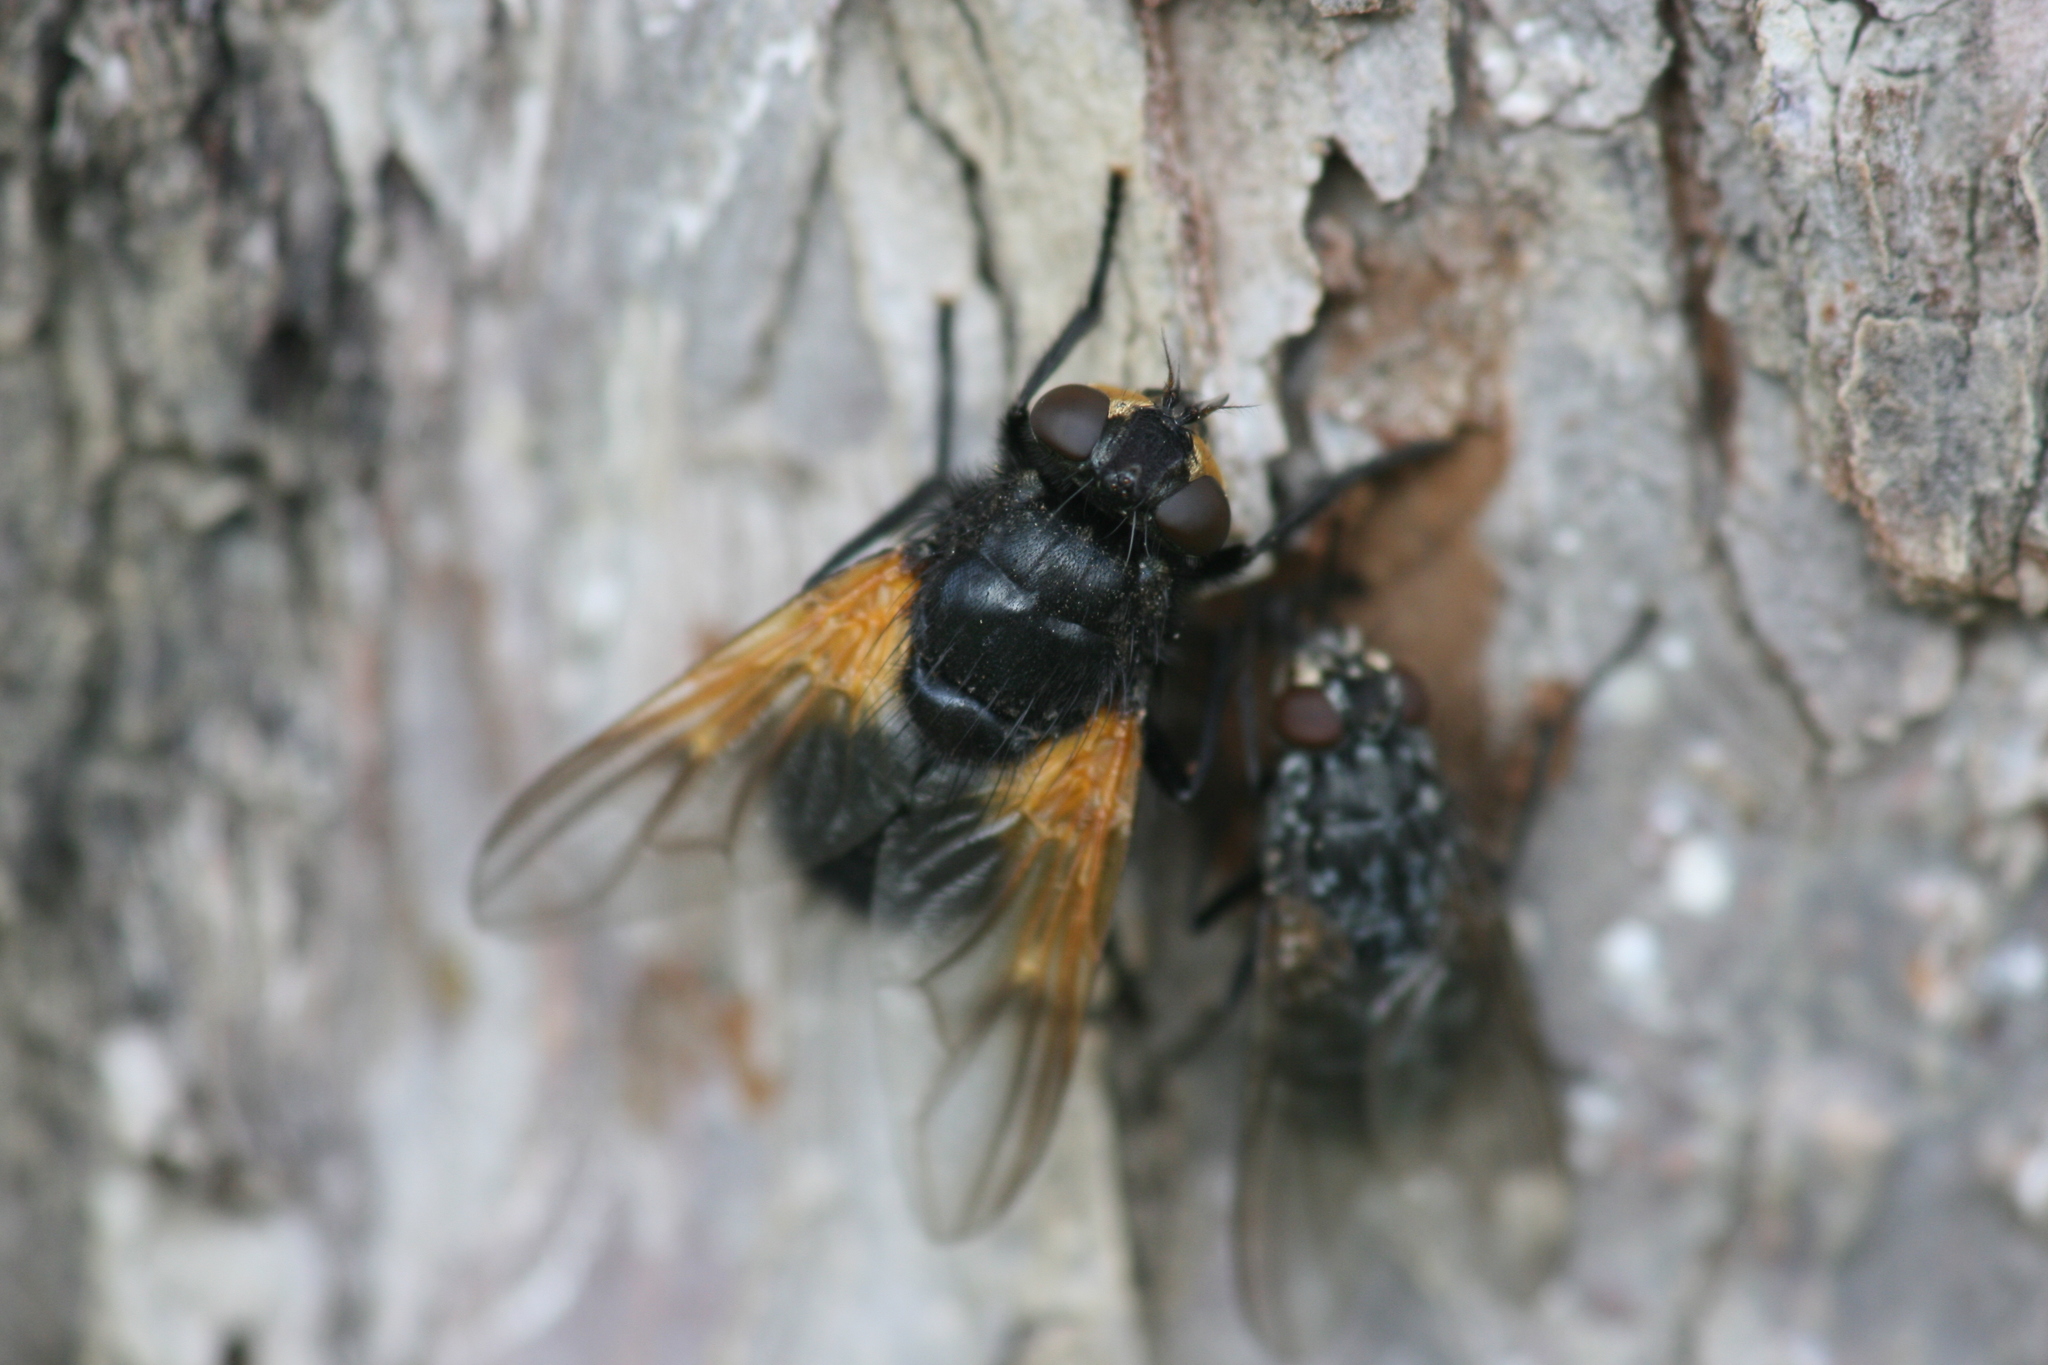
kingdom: Animalia
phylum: Arthropoda
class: Insecta
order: Diptera
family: Muscidae
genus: Mesembrina
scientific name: Mesembrina meridiana
